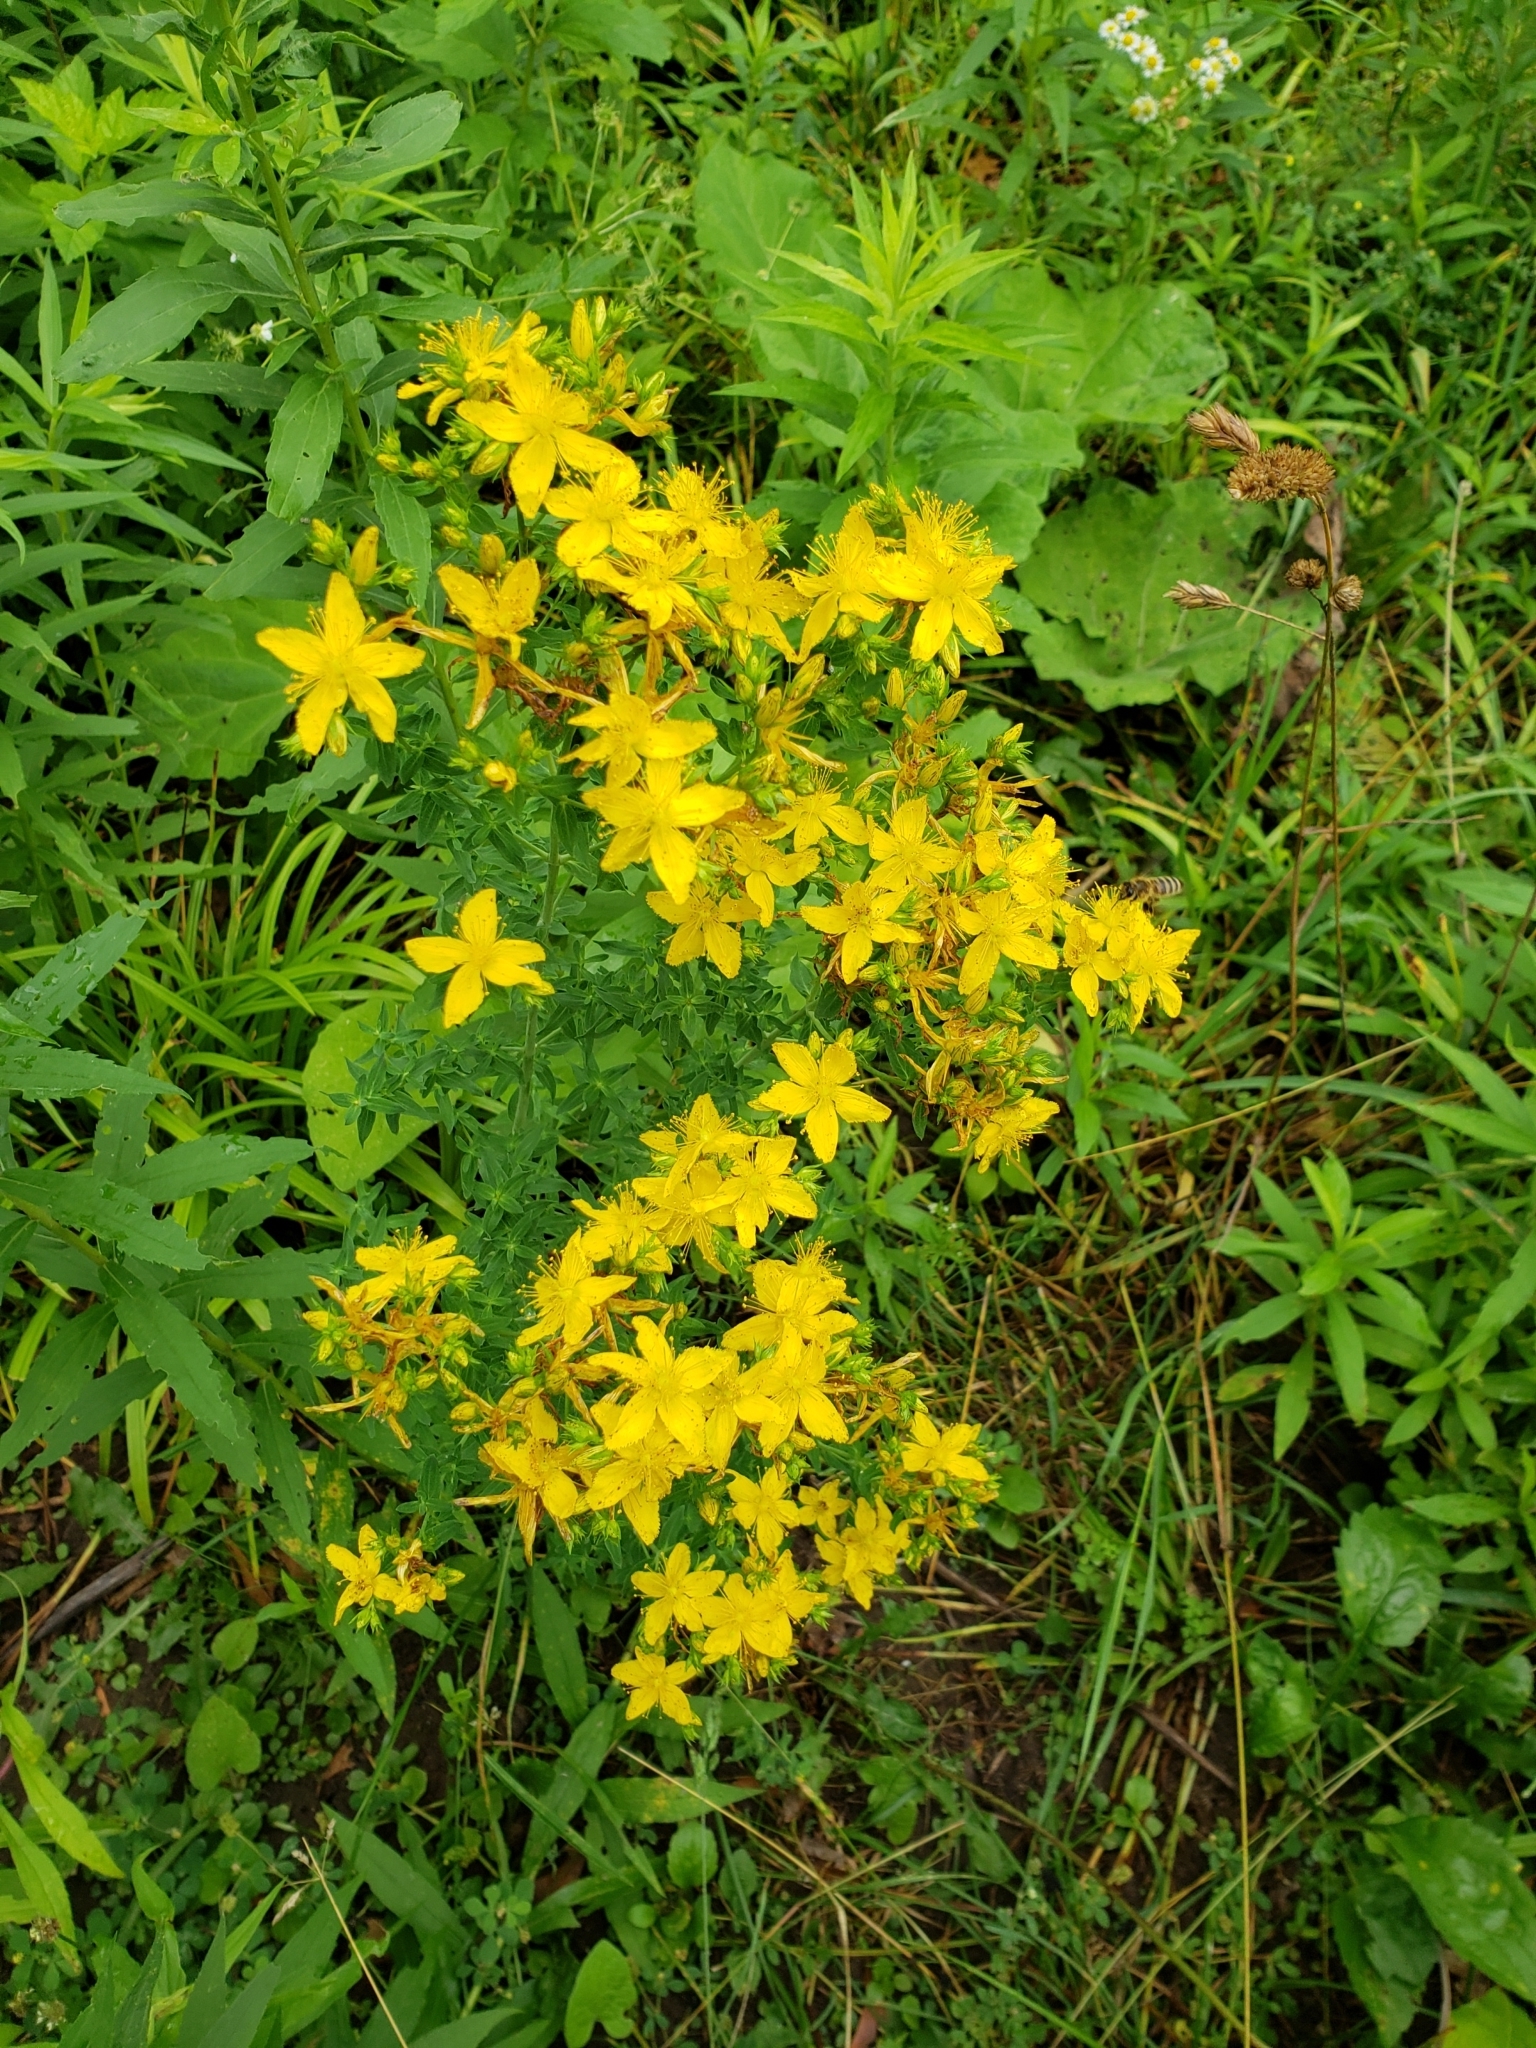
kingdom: Plantae
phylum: Tracheophyta
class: Magnoliopsida
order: Malpighiales
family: Hypericaceae
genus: Hypericum
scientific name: Hypericum perforatum
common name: Common st. johnswort
